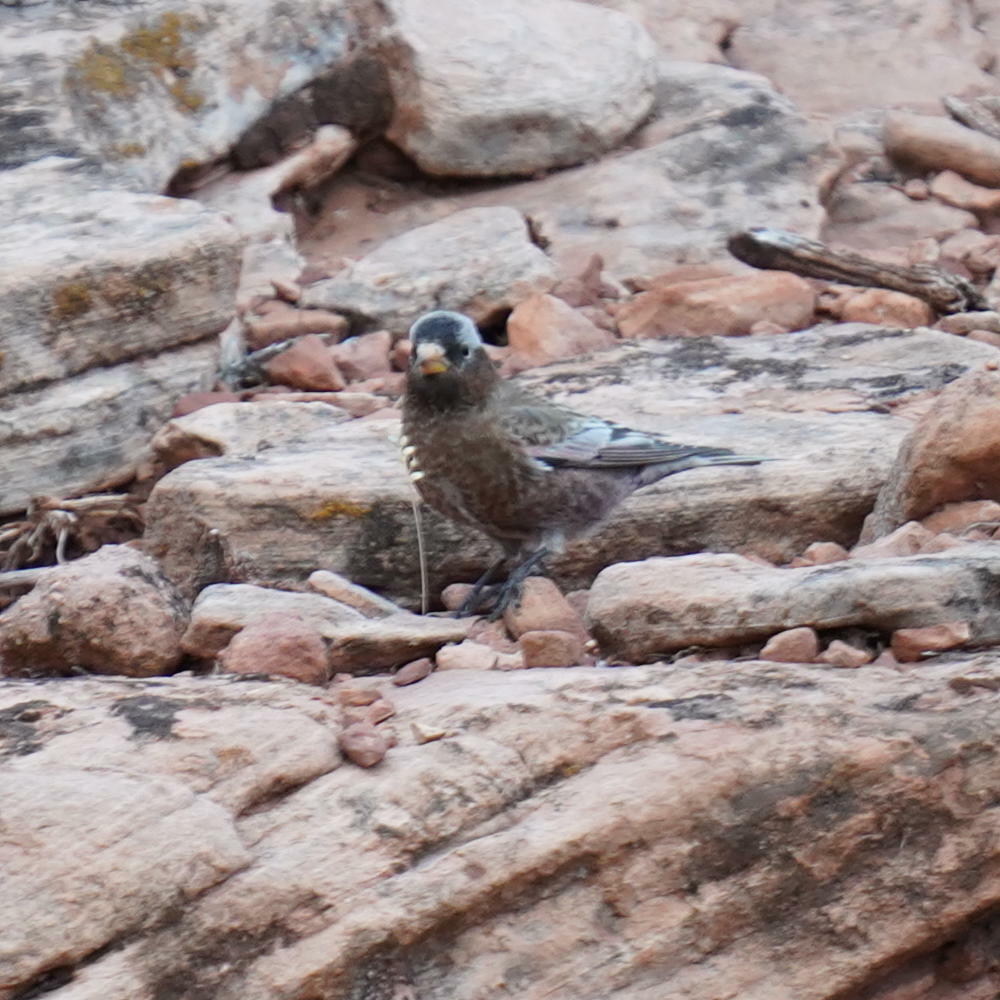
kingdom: Animalia
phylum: Chordata
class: Aves
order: Passeriformes
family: Fringillidae
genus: Leucosticte
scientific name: Leucosticte tephrocotis
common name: Gray-crowned rosy-finch
